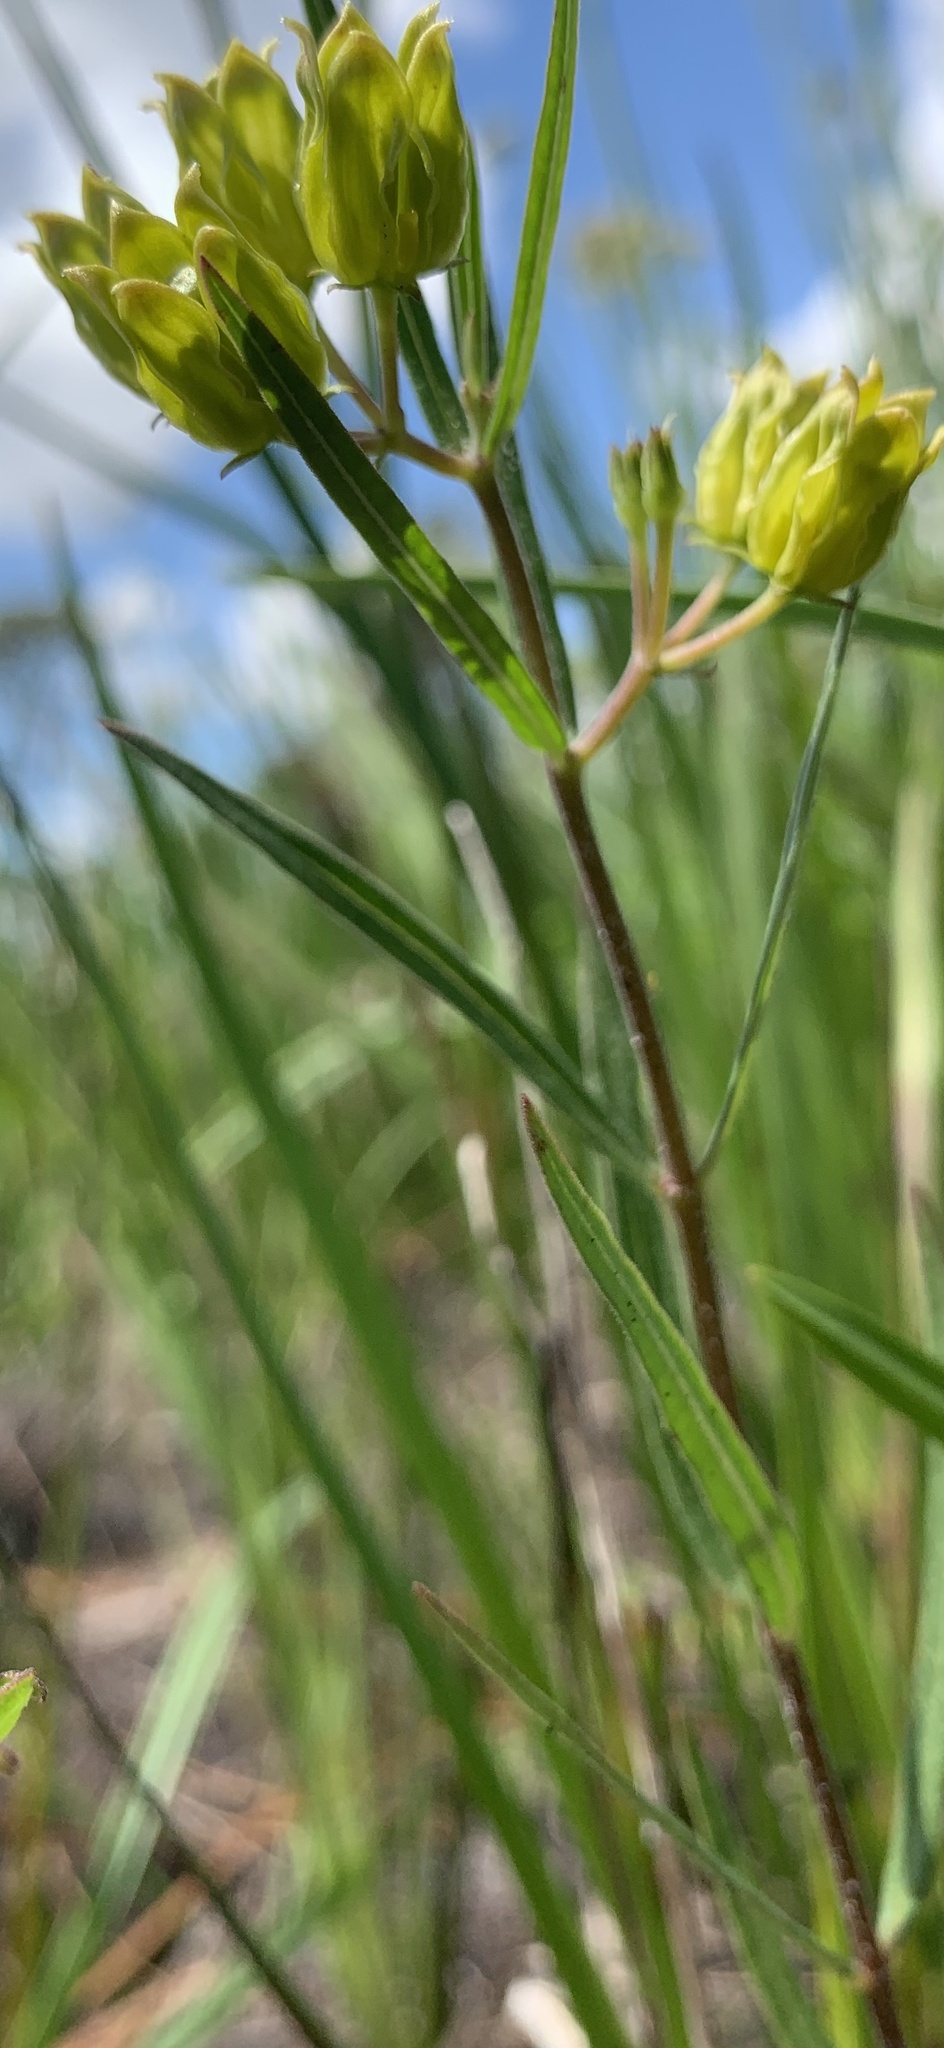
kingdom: Plantae
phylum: Tracheophyta
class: Magnoliopsida
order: Gentianales
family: Apocynaceae
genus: Asclepias
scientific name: Asclepias pedicellata
